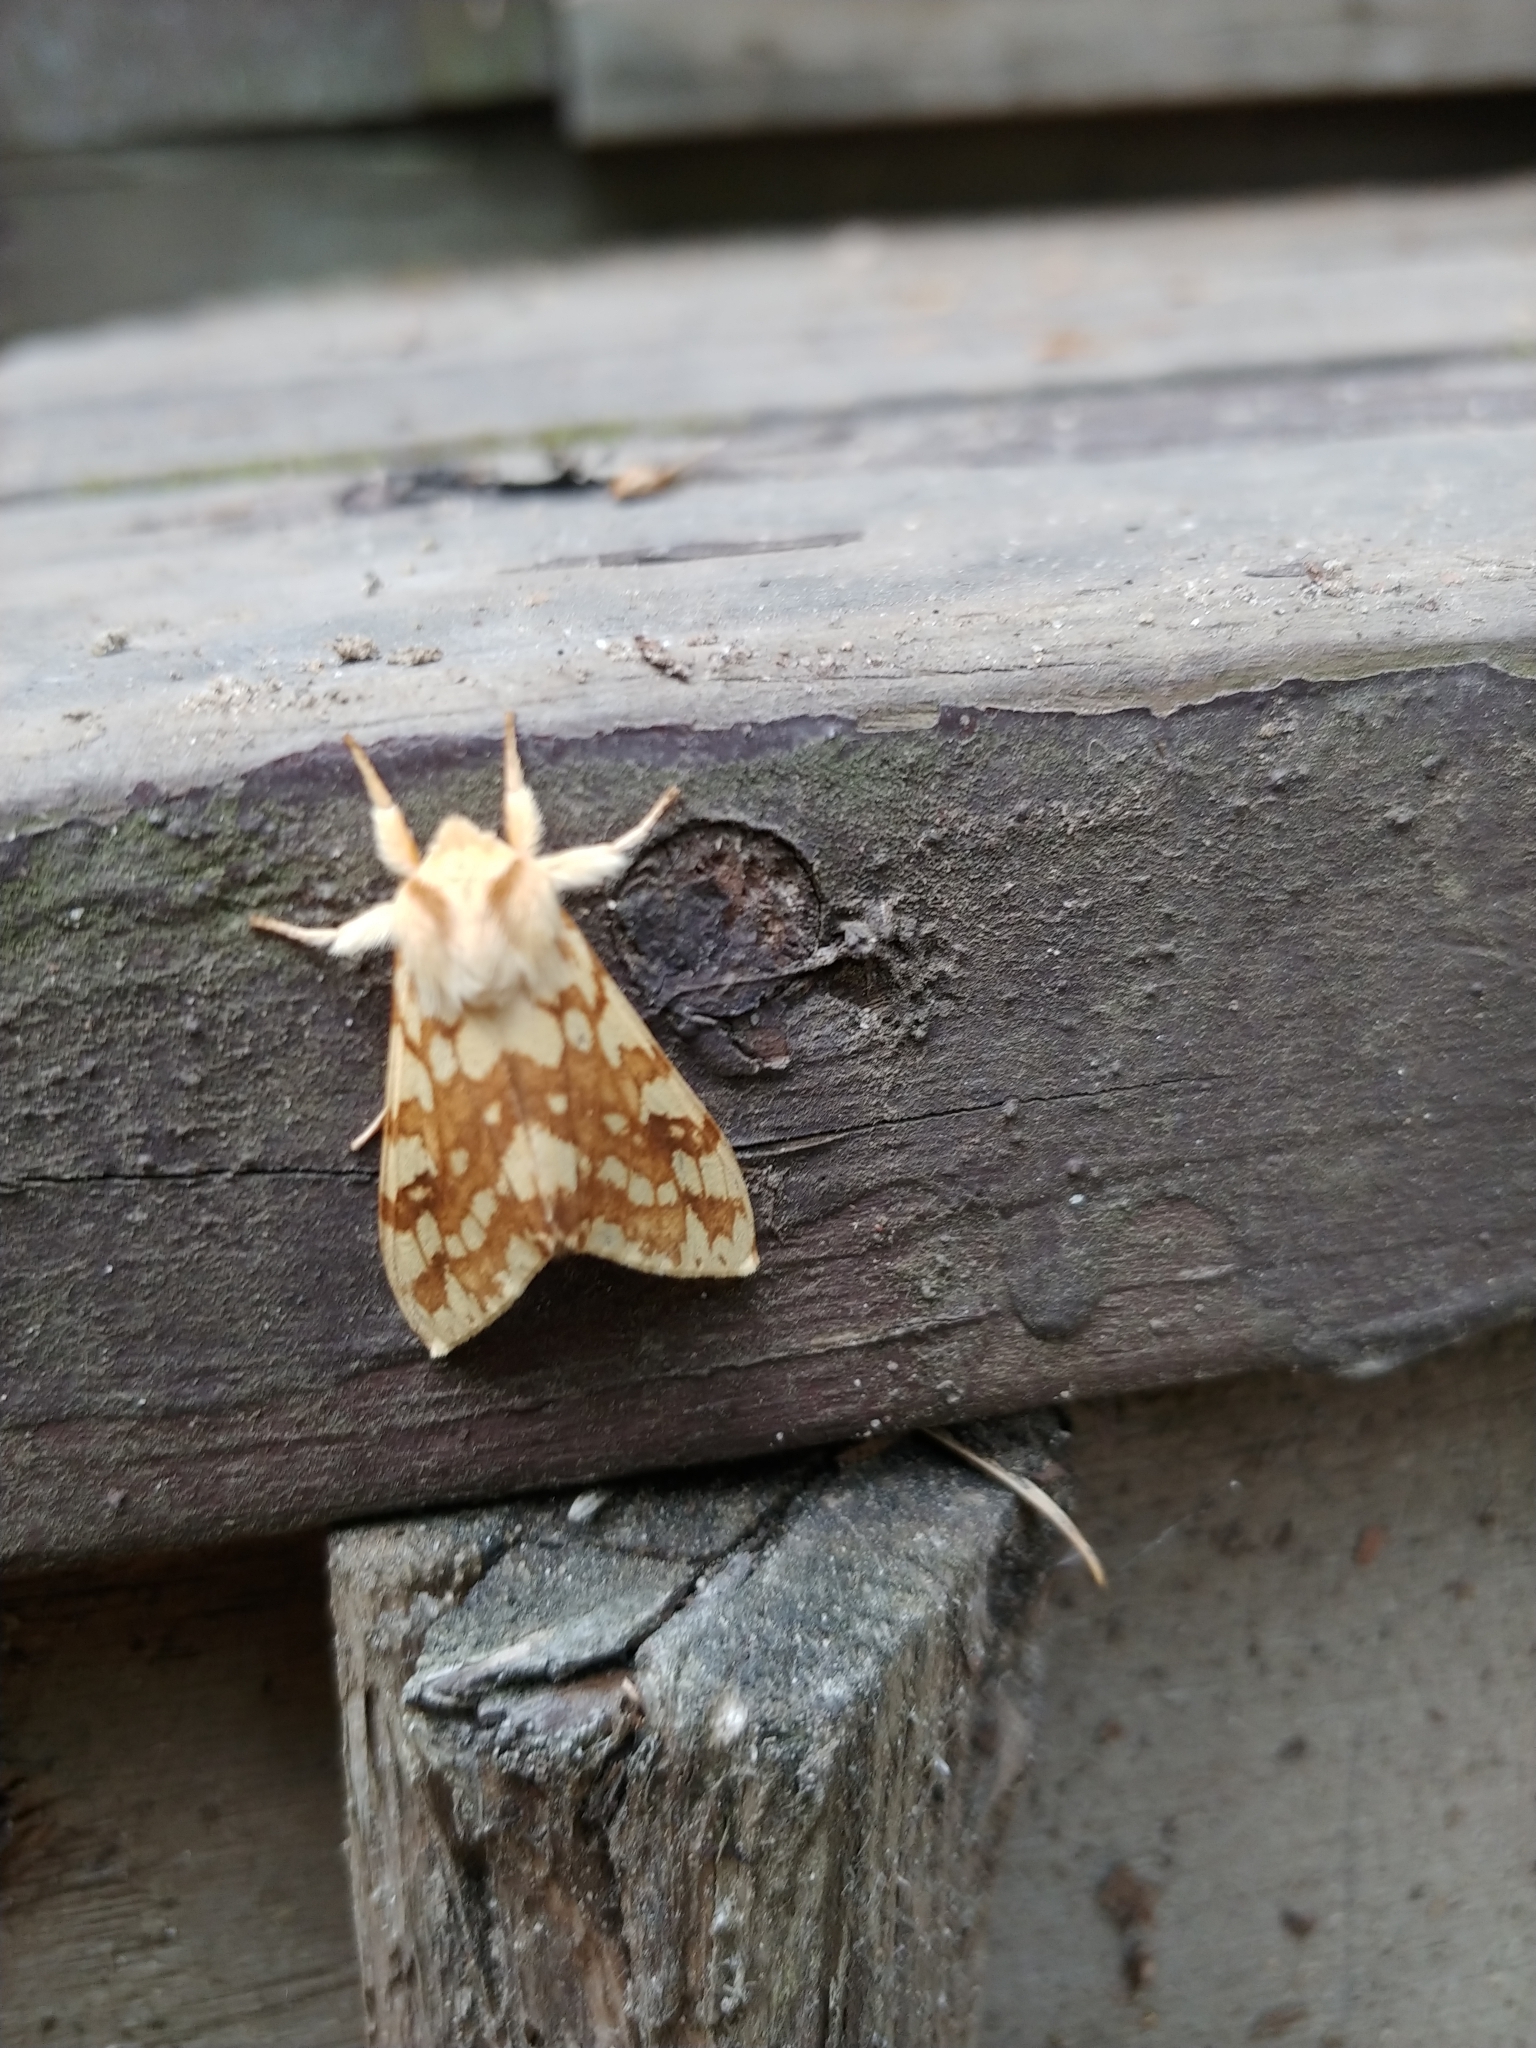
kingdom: Animalia
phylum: Arthropoda
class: Insecta
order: Lepidoptera
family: Erebidae
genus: Lophocampa
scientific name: Lophocampa maculata
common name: Spotted tussock moth
